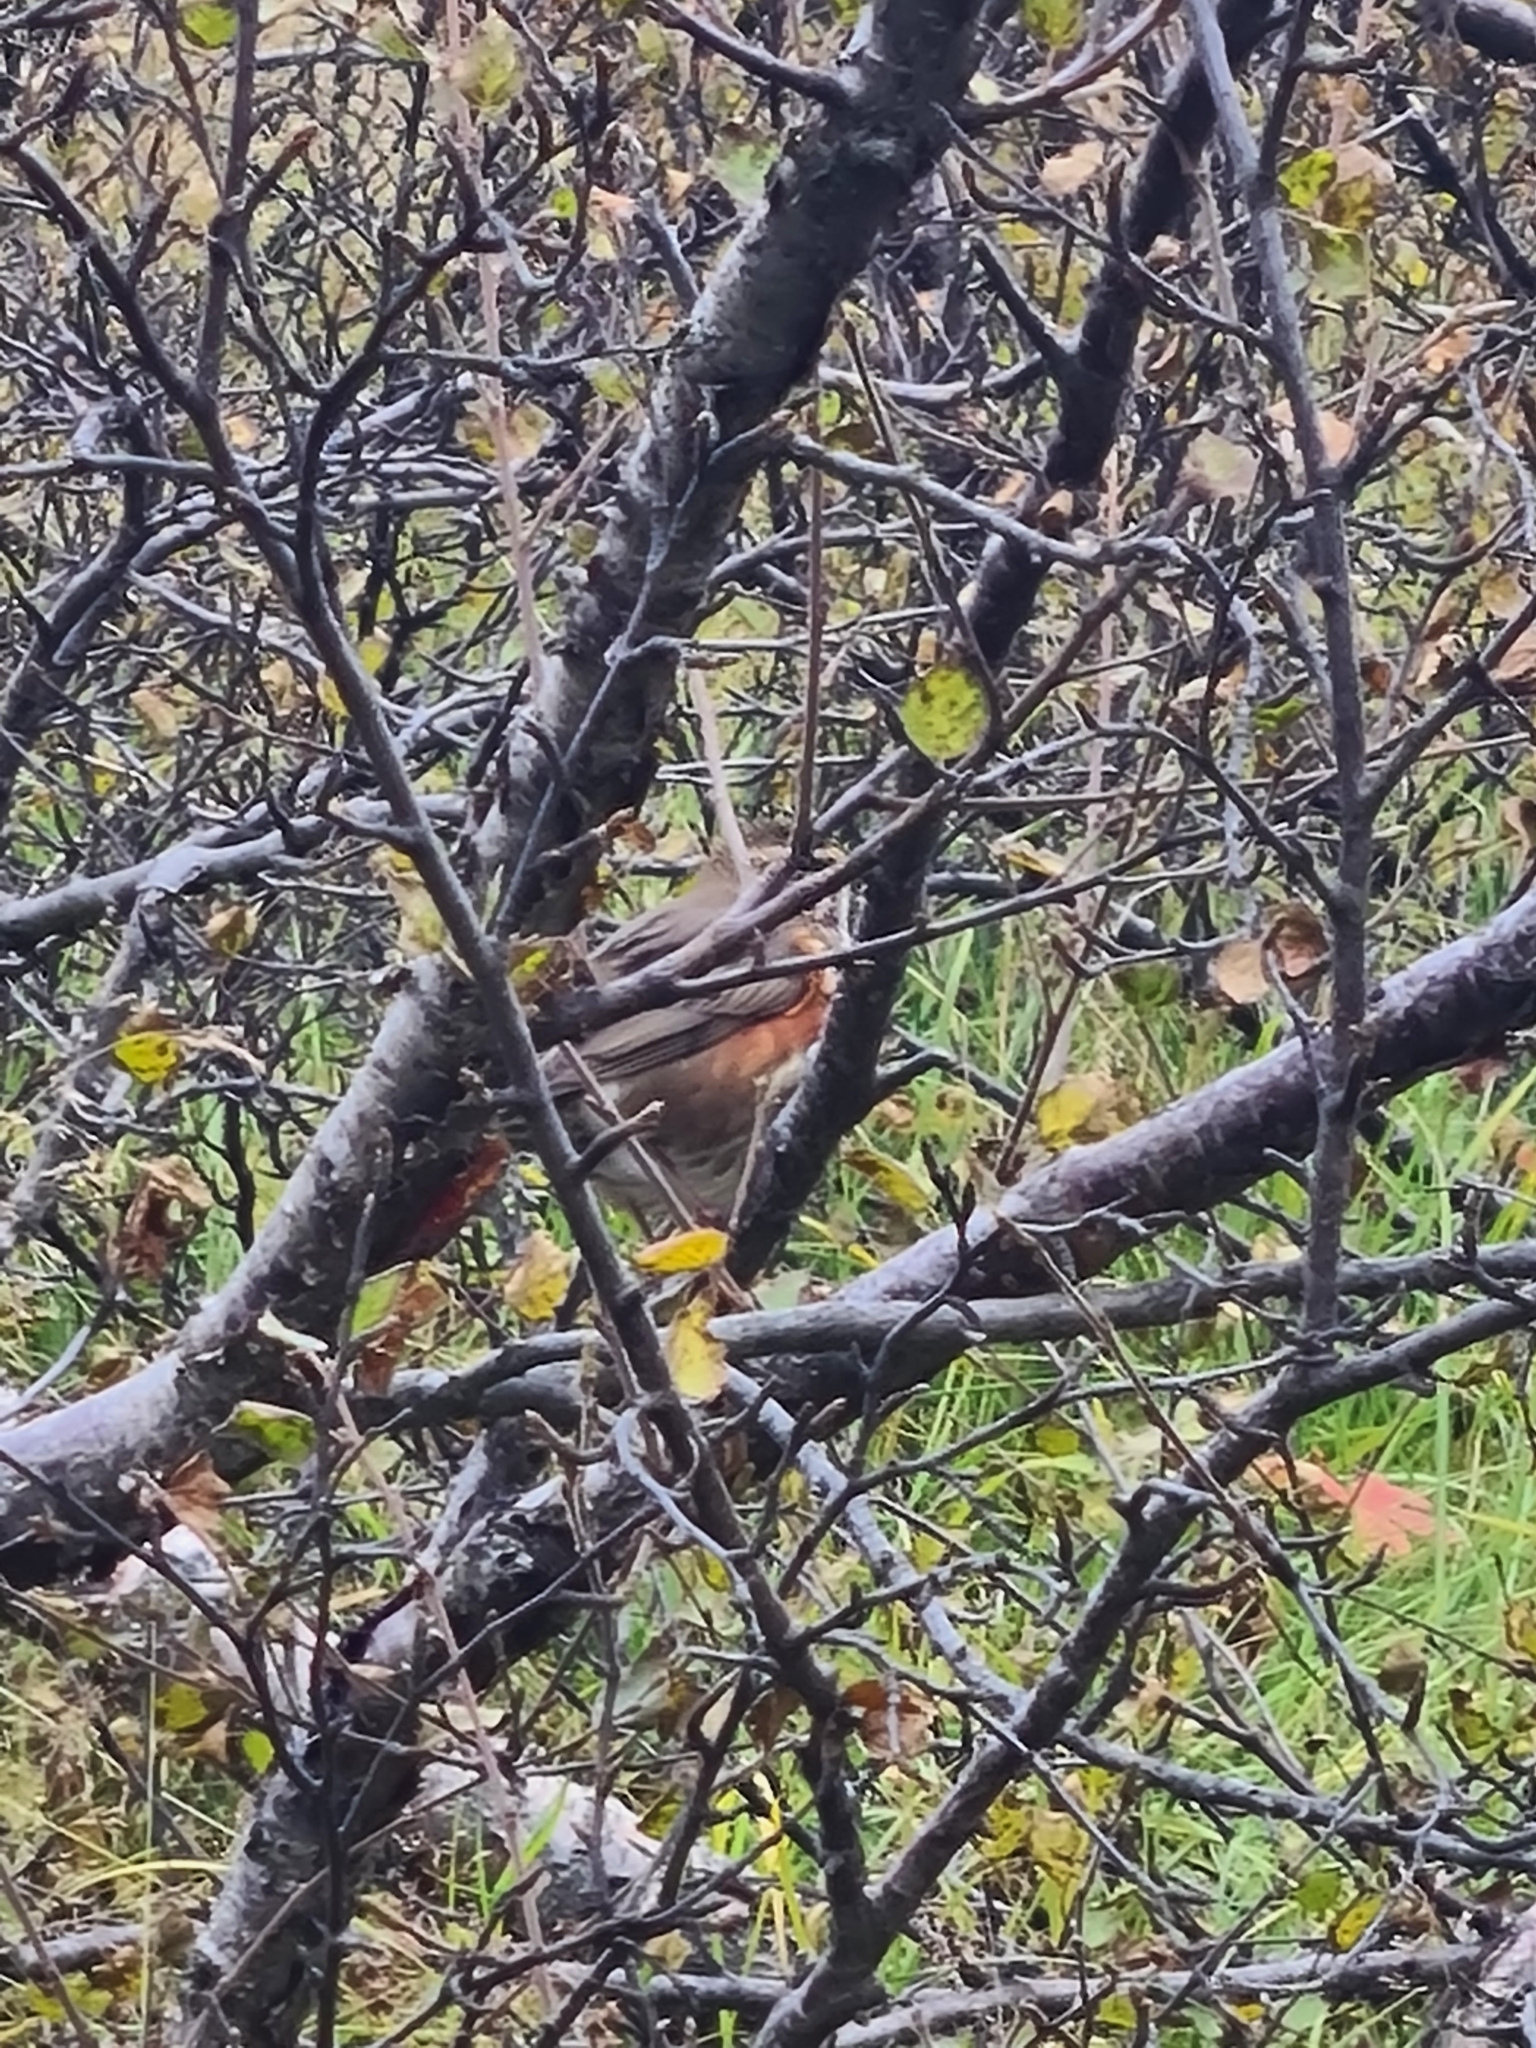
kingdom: Animalia
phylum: Chordata
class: Aves
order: Passeriformes
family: Turdidae
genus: Turdus
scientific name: Turdus iliacus
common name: Redwing
